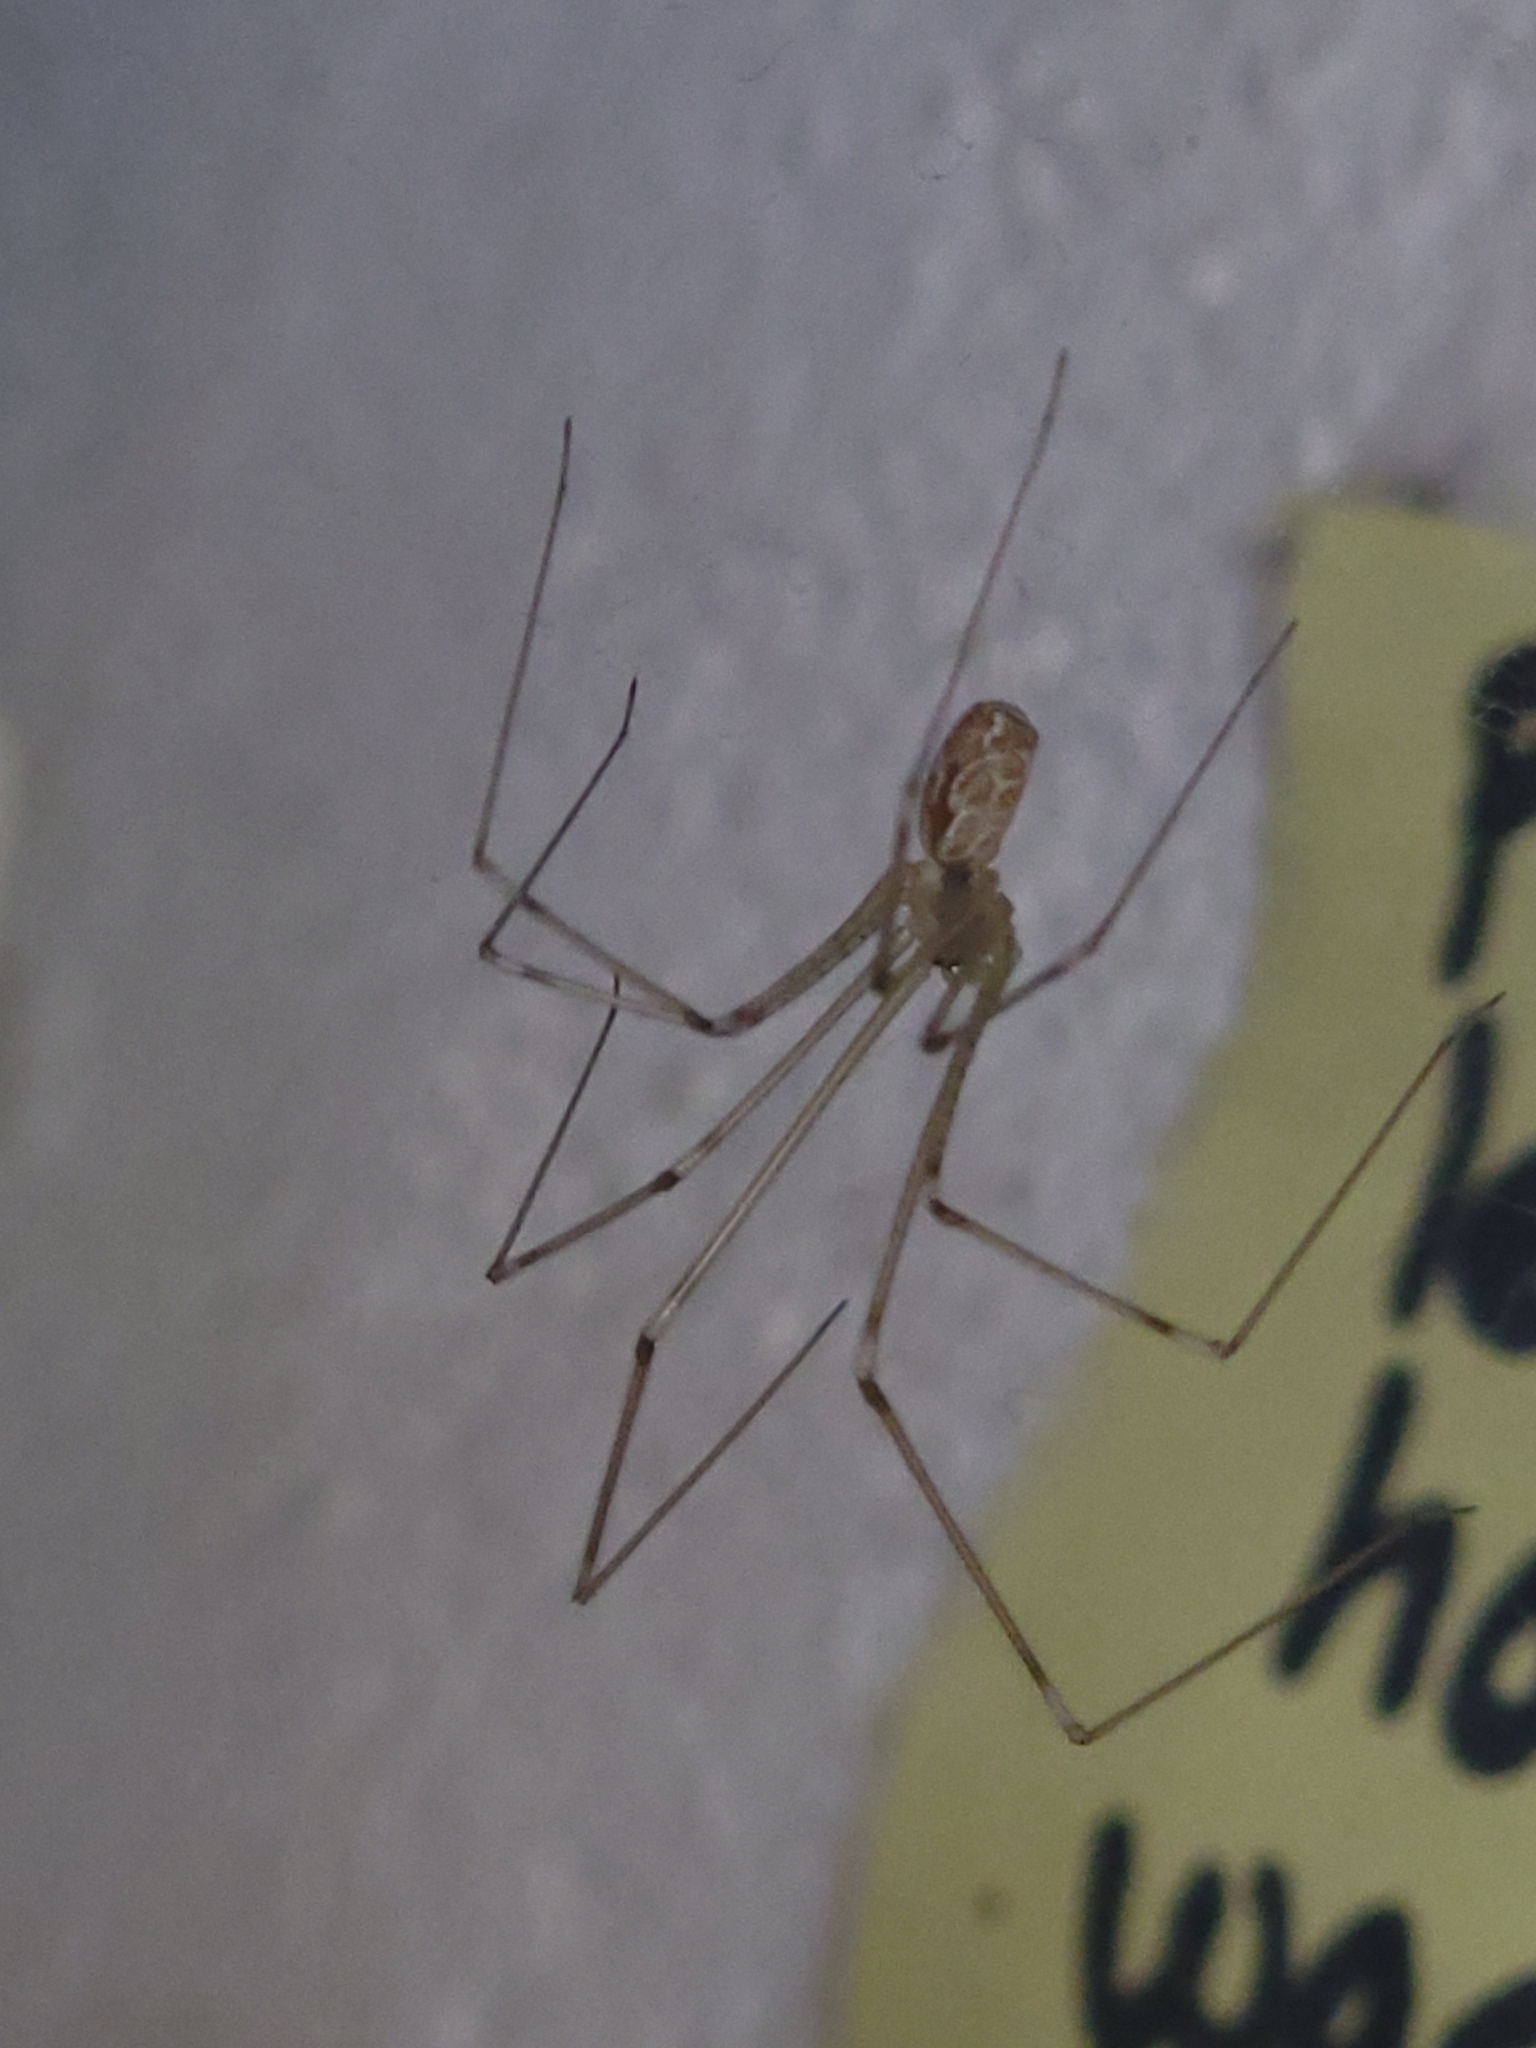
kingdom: Animalia
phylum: Arthropoda
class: Arachnida
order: Araneae
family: Pholcidae
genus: Holocnemus
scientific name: Holocnemus pluchei
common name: Marbled cellar spider
